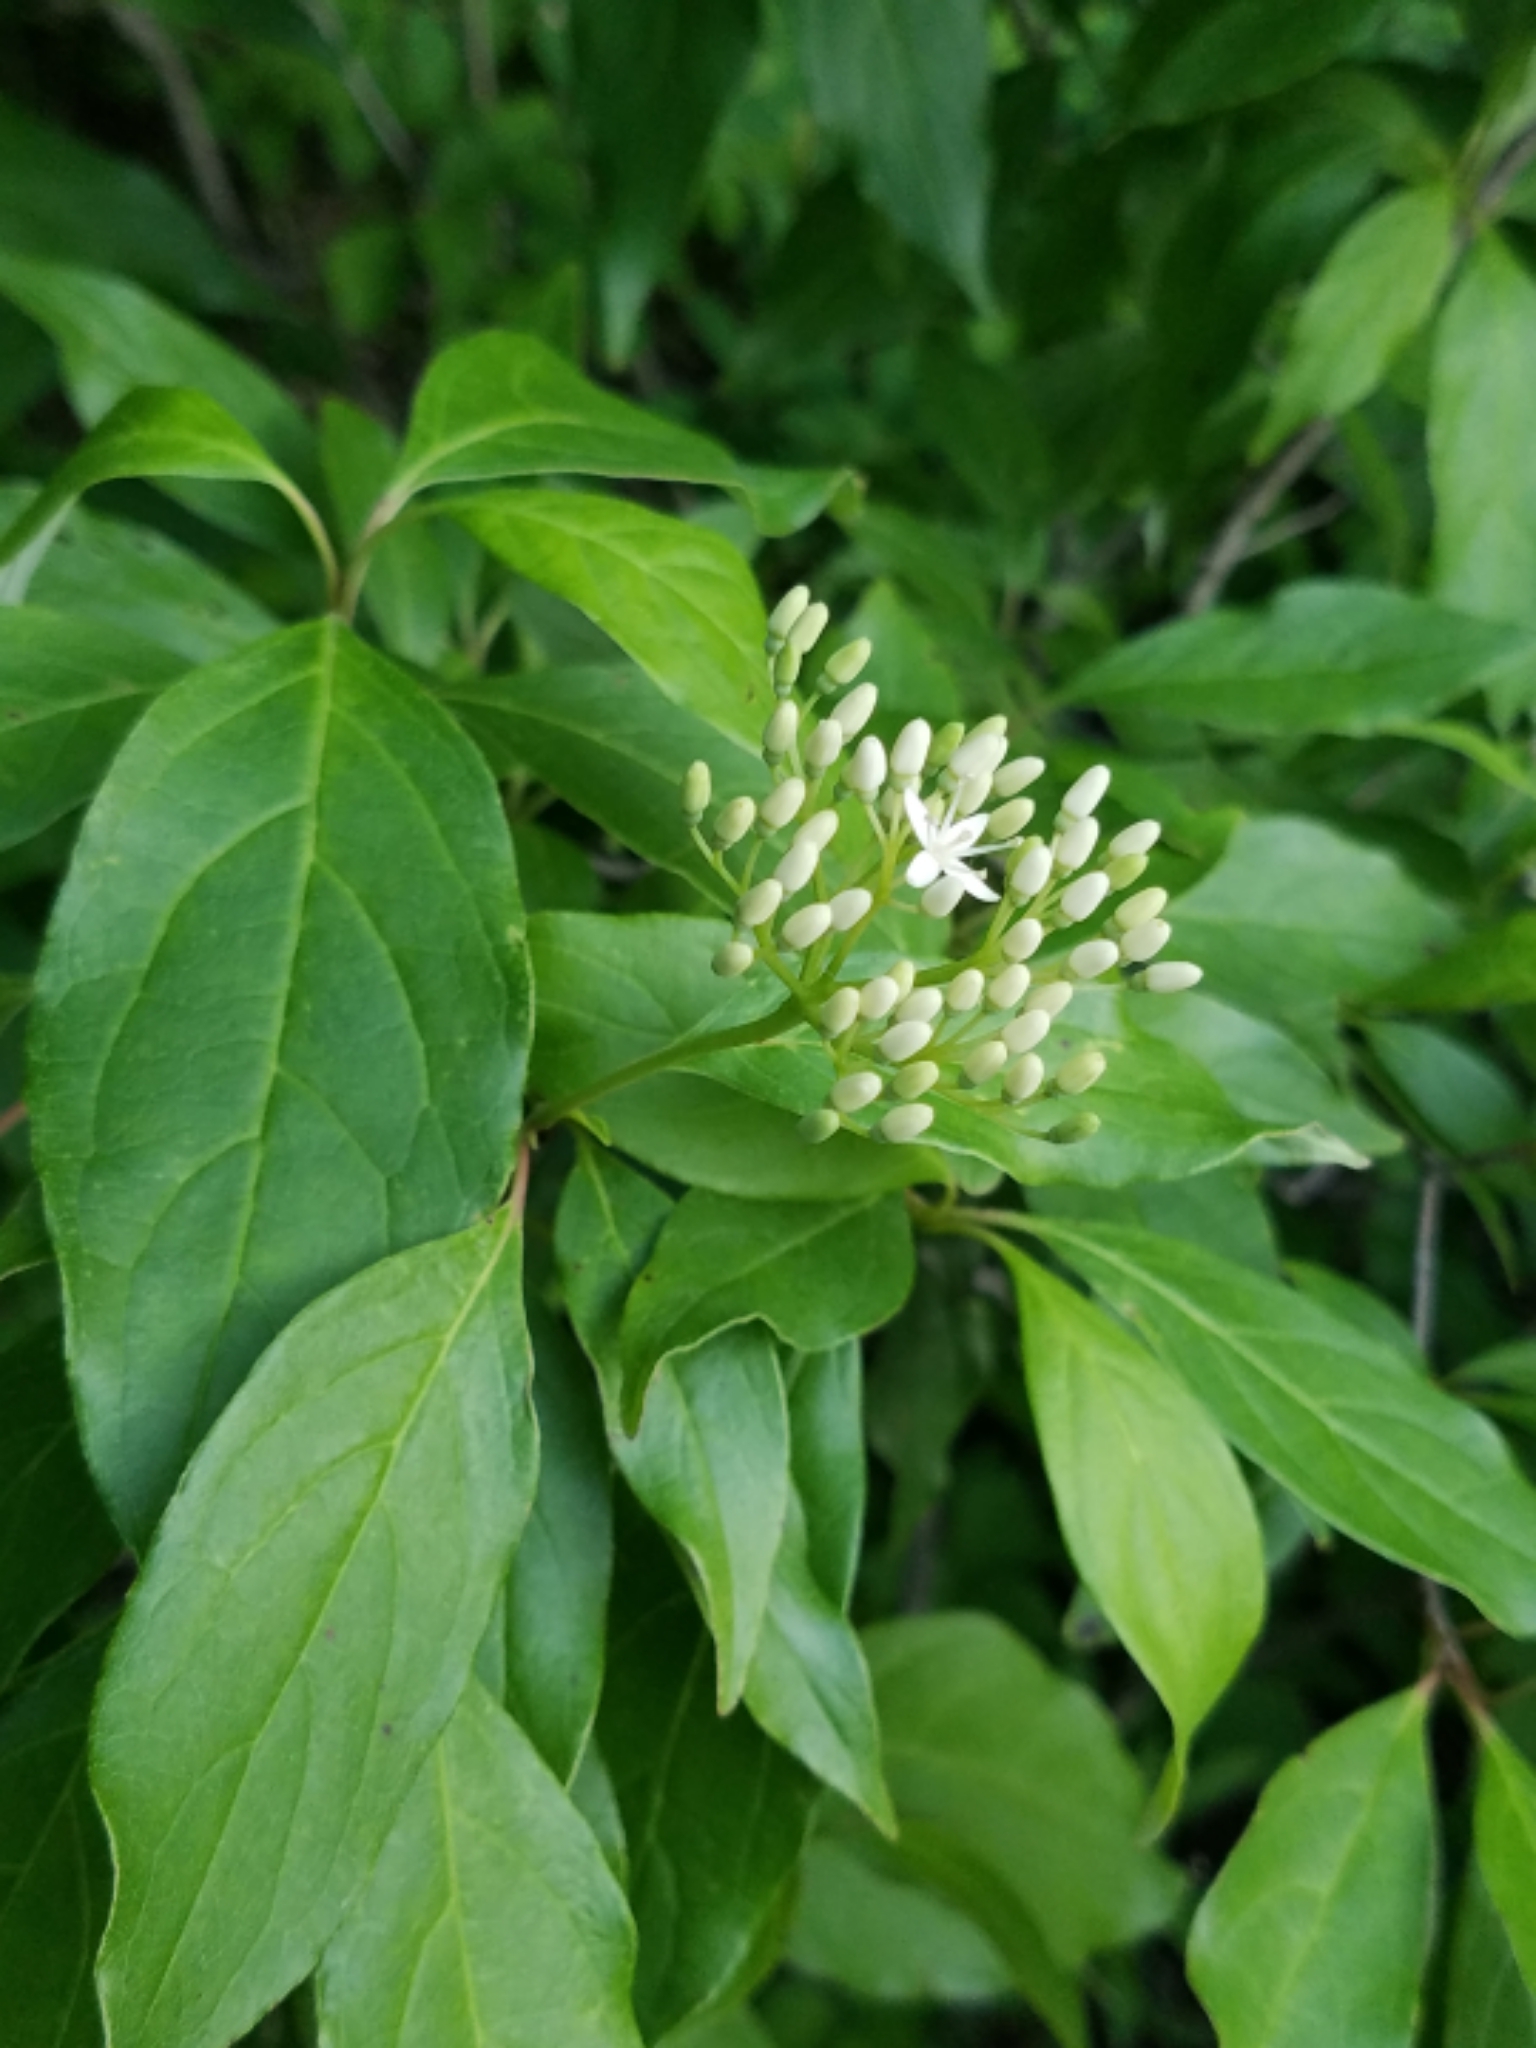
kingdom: Plantae
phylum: Tracheophyta
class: Magnoliopsida
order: Cornales
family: Cornaceae
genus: Cornus
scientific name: Cornus racemosa
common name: Panicled dogwood
